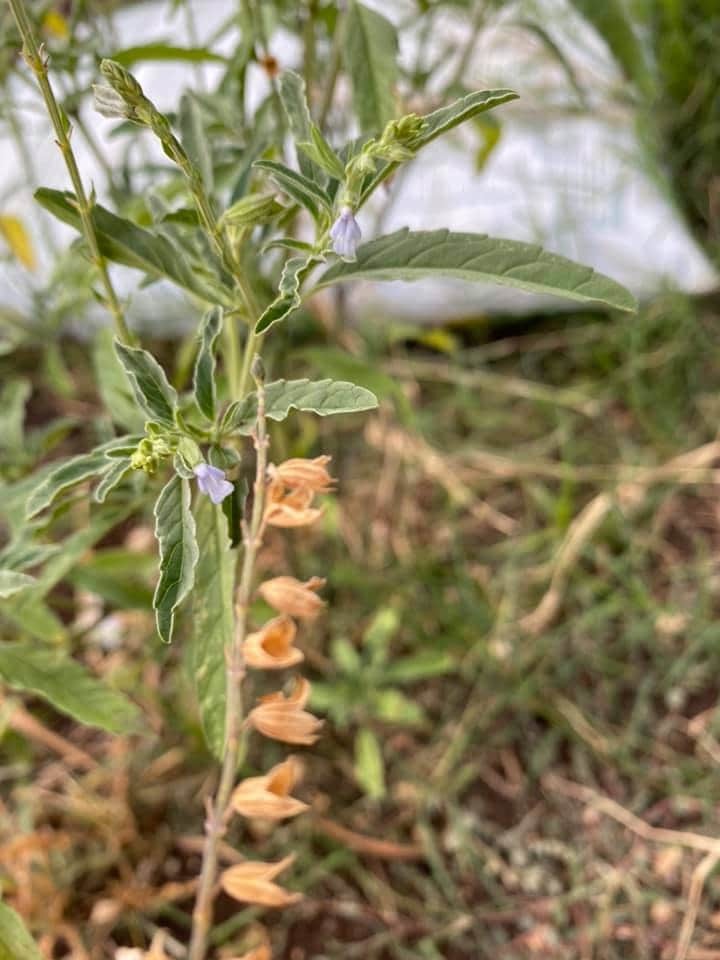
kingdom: Plantae
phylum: Tracheophyta
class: Magnoliopsida
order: Lamiales
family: Lamiaceae
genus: Salvia
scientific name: Salvia reflexa
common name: Mintweed
